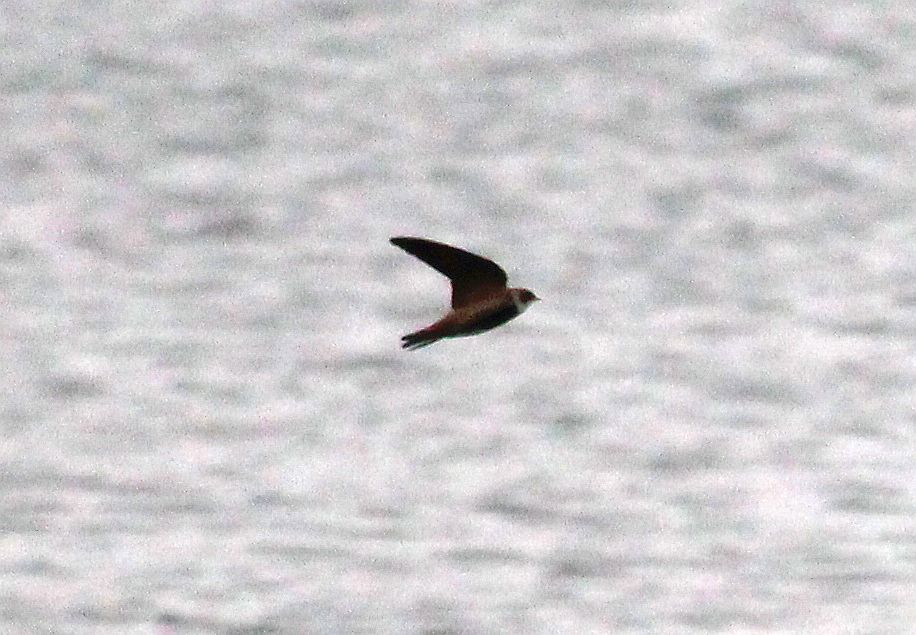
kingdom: Animalia
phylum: Chordata
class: Aves
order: Passeriformes
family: Hirundinidae
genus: Riparia
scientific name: Riparia riparia
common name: Sand martin
